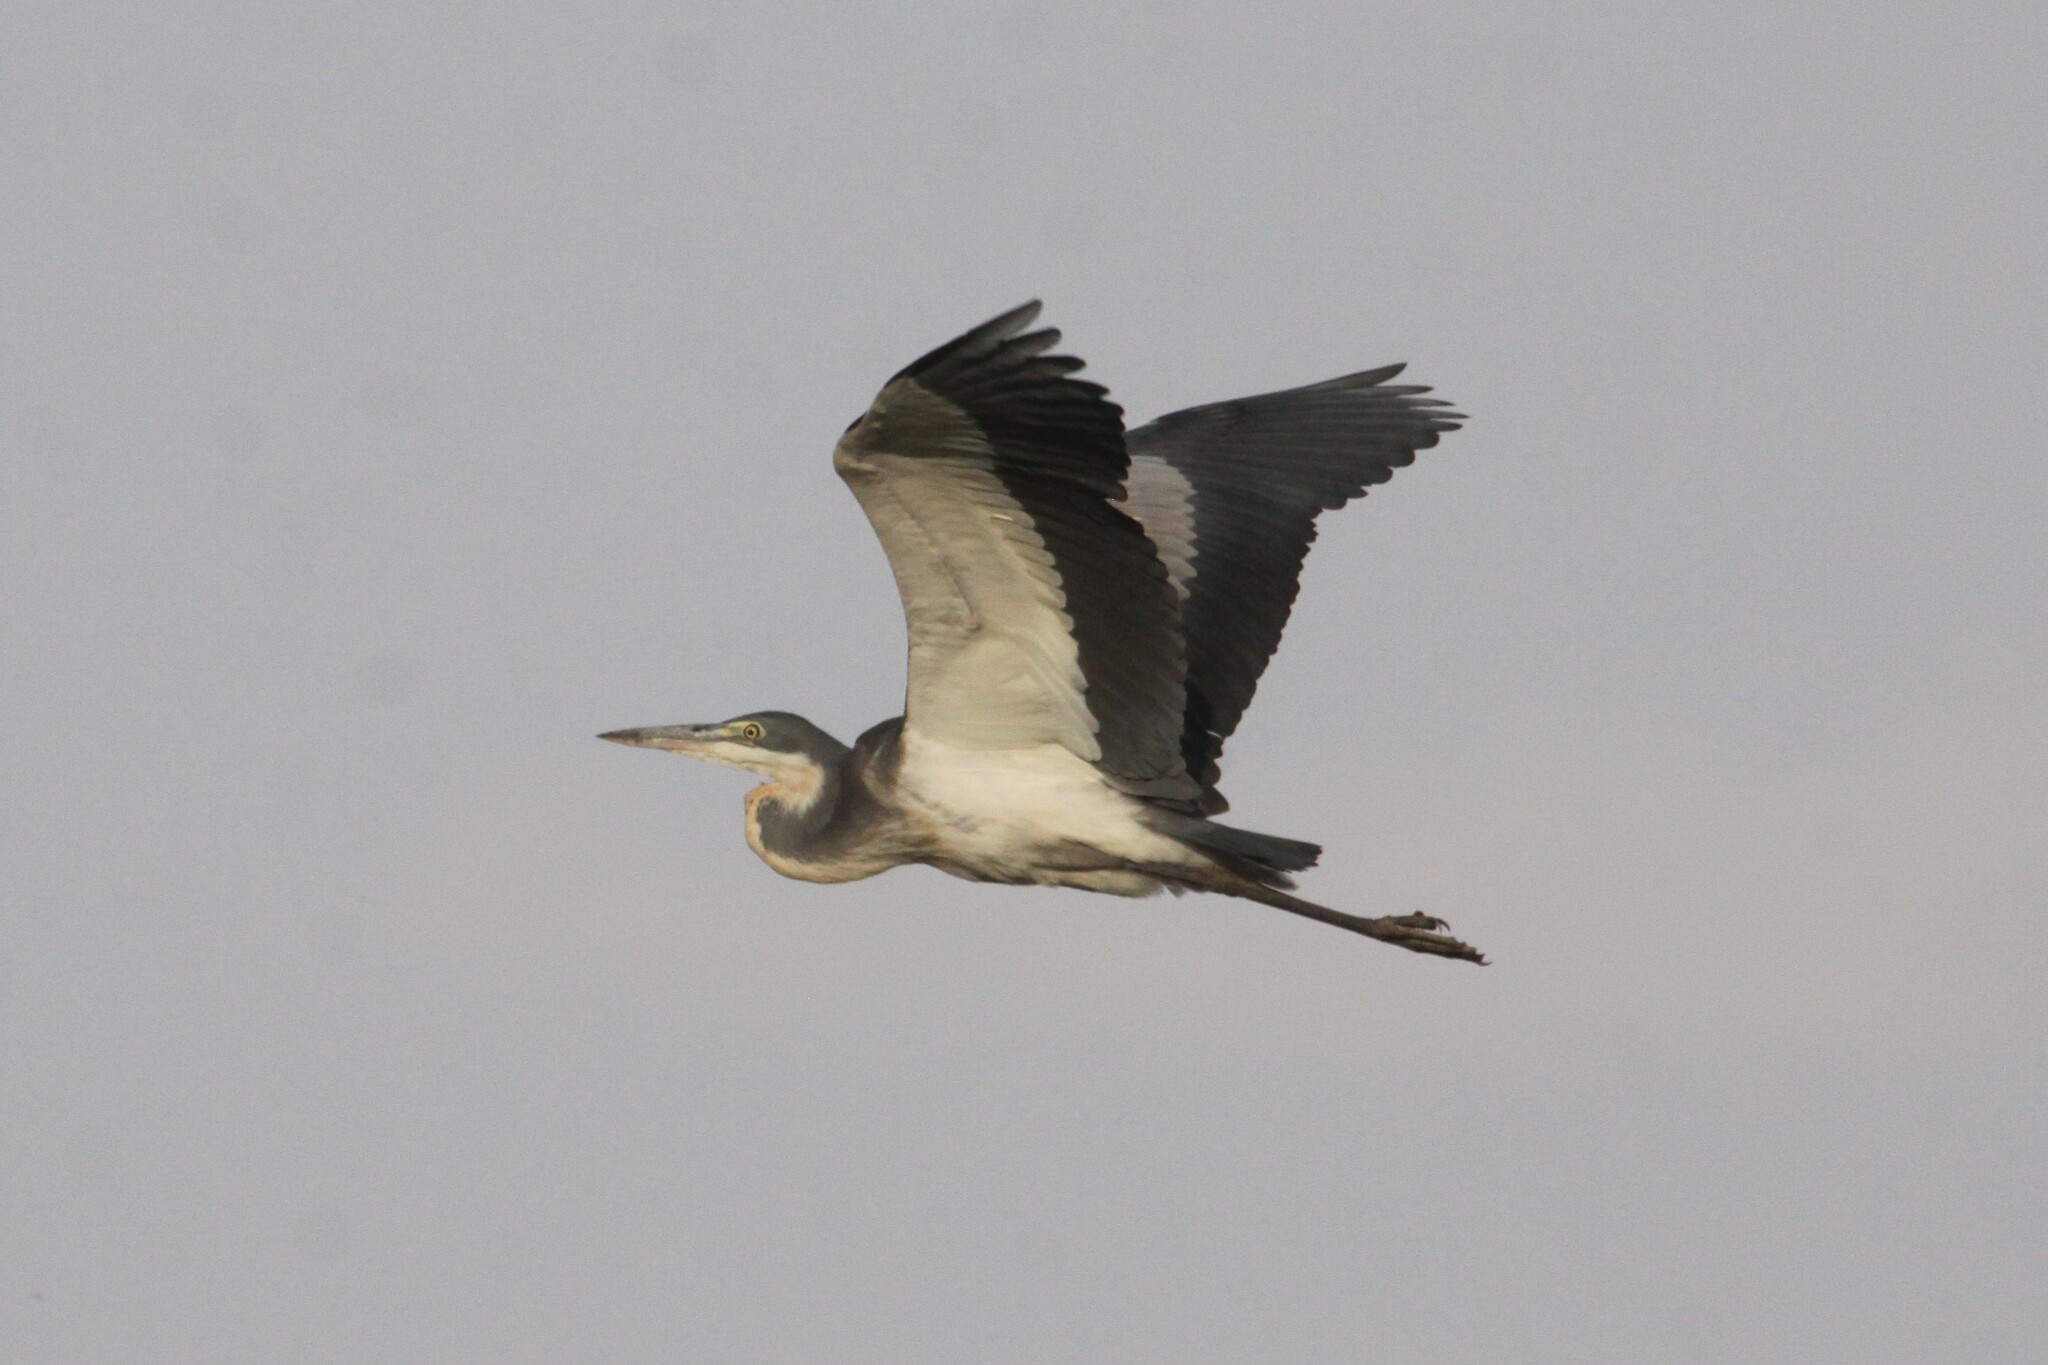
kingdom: Animalia
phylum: Chordata
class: Aves
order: Pelecaniformes
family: Ardeidae
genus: Ardea
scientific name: Ardea melanocephala
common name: Black-headed heron
